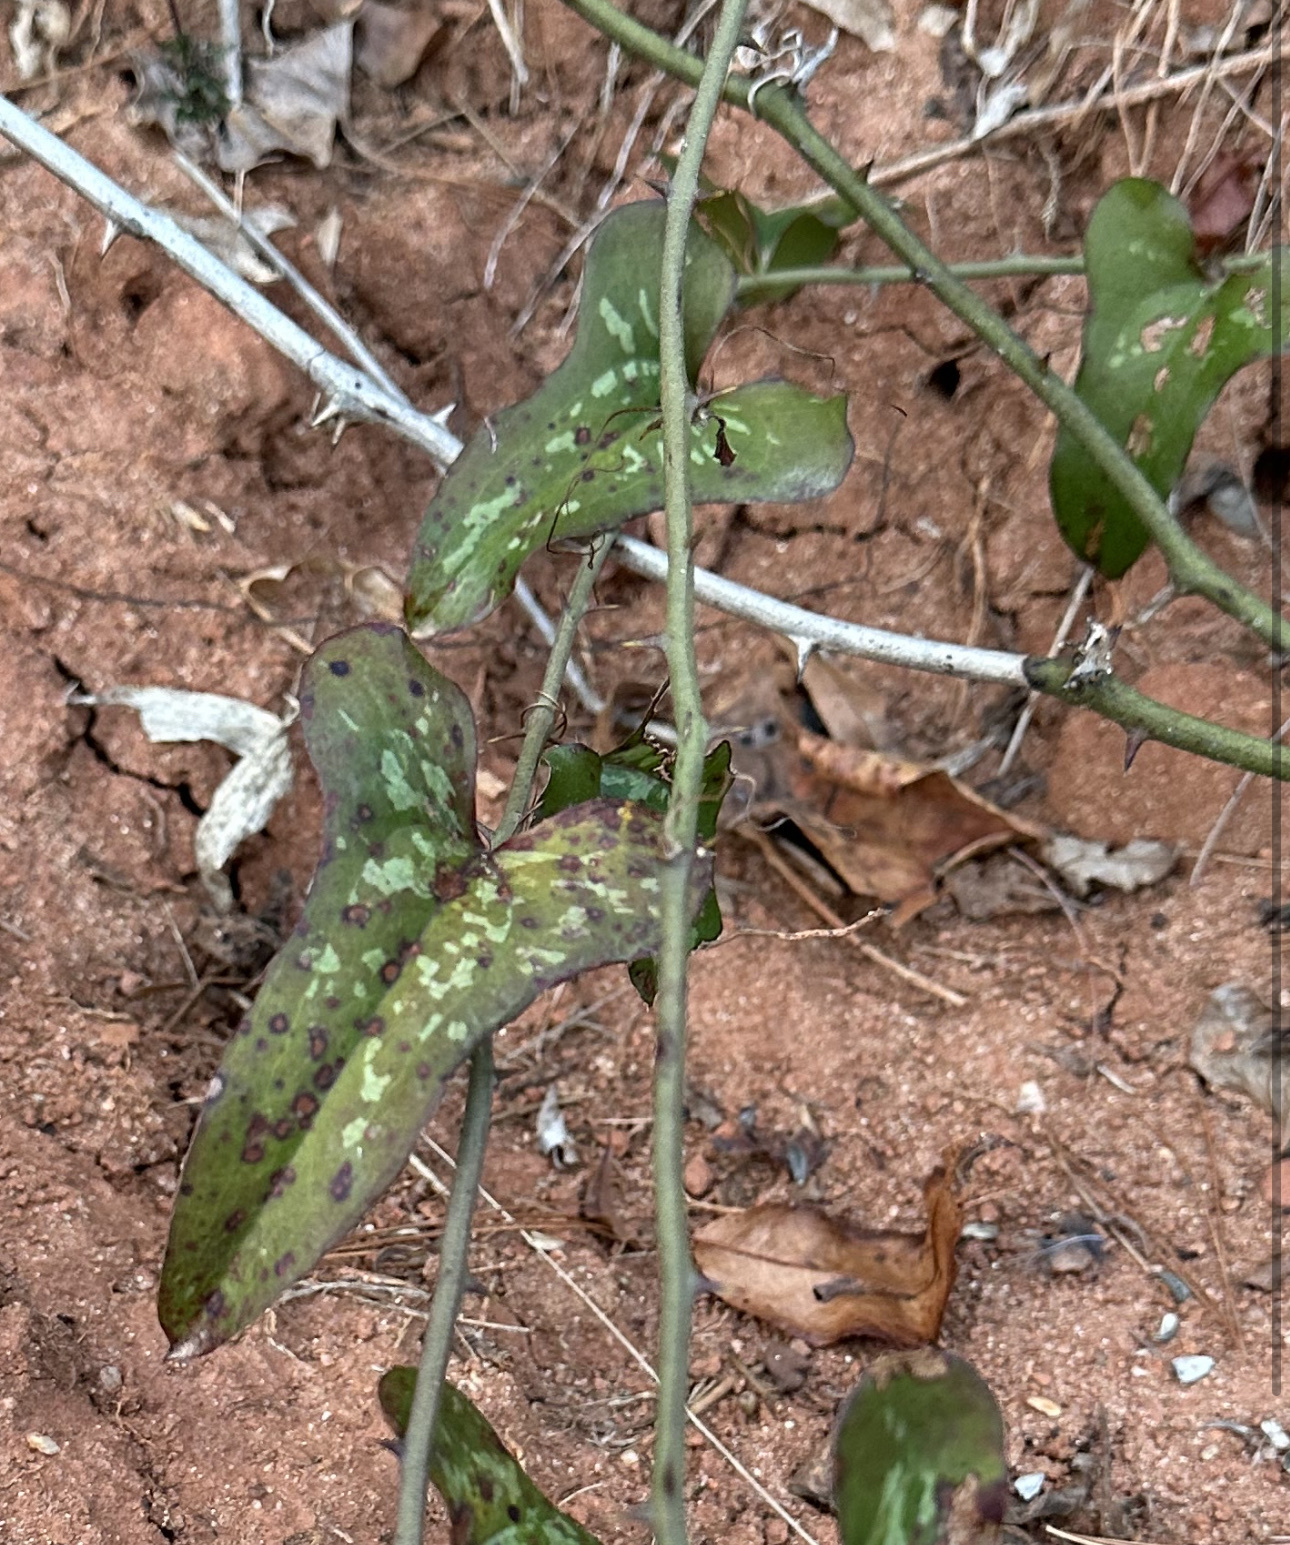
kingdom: Plantae
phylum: Tracheophyta
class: Liliopsida
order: Liliales
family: Smilacaceae
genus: Smilax
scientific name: Smilax bona-nox
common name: Catbrier
